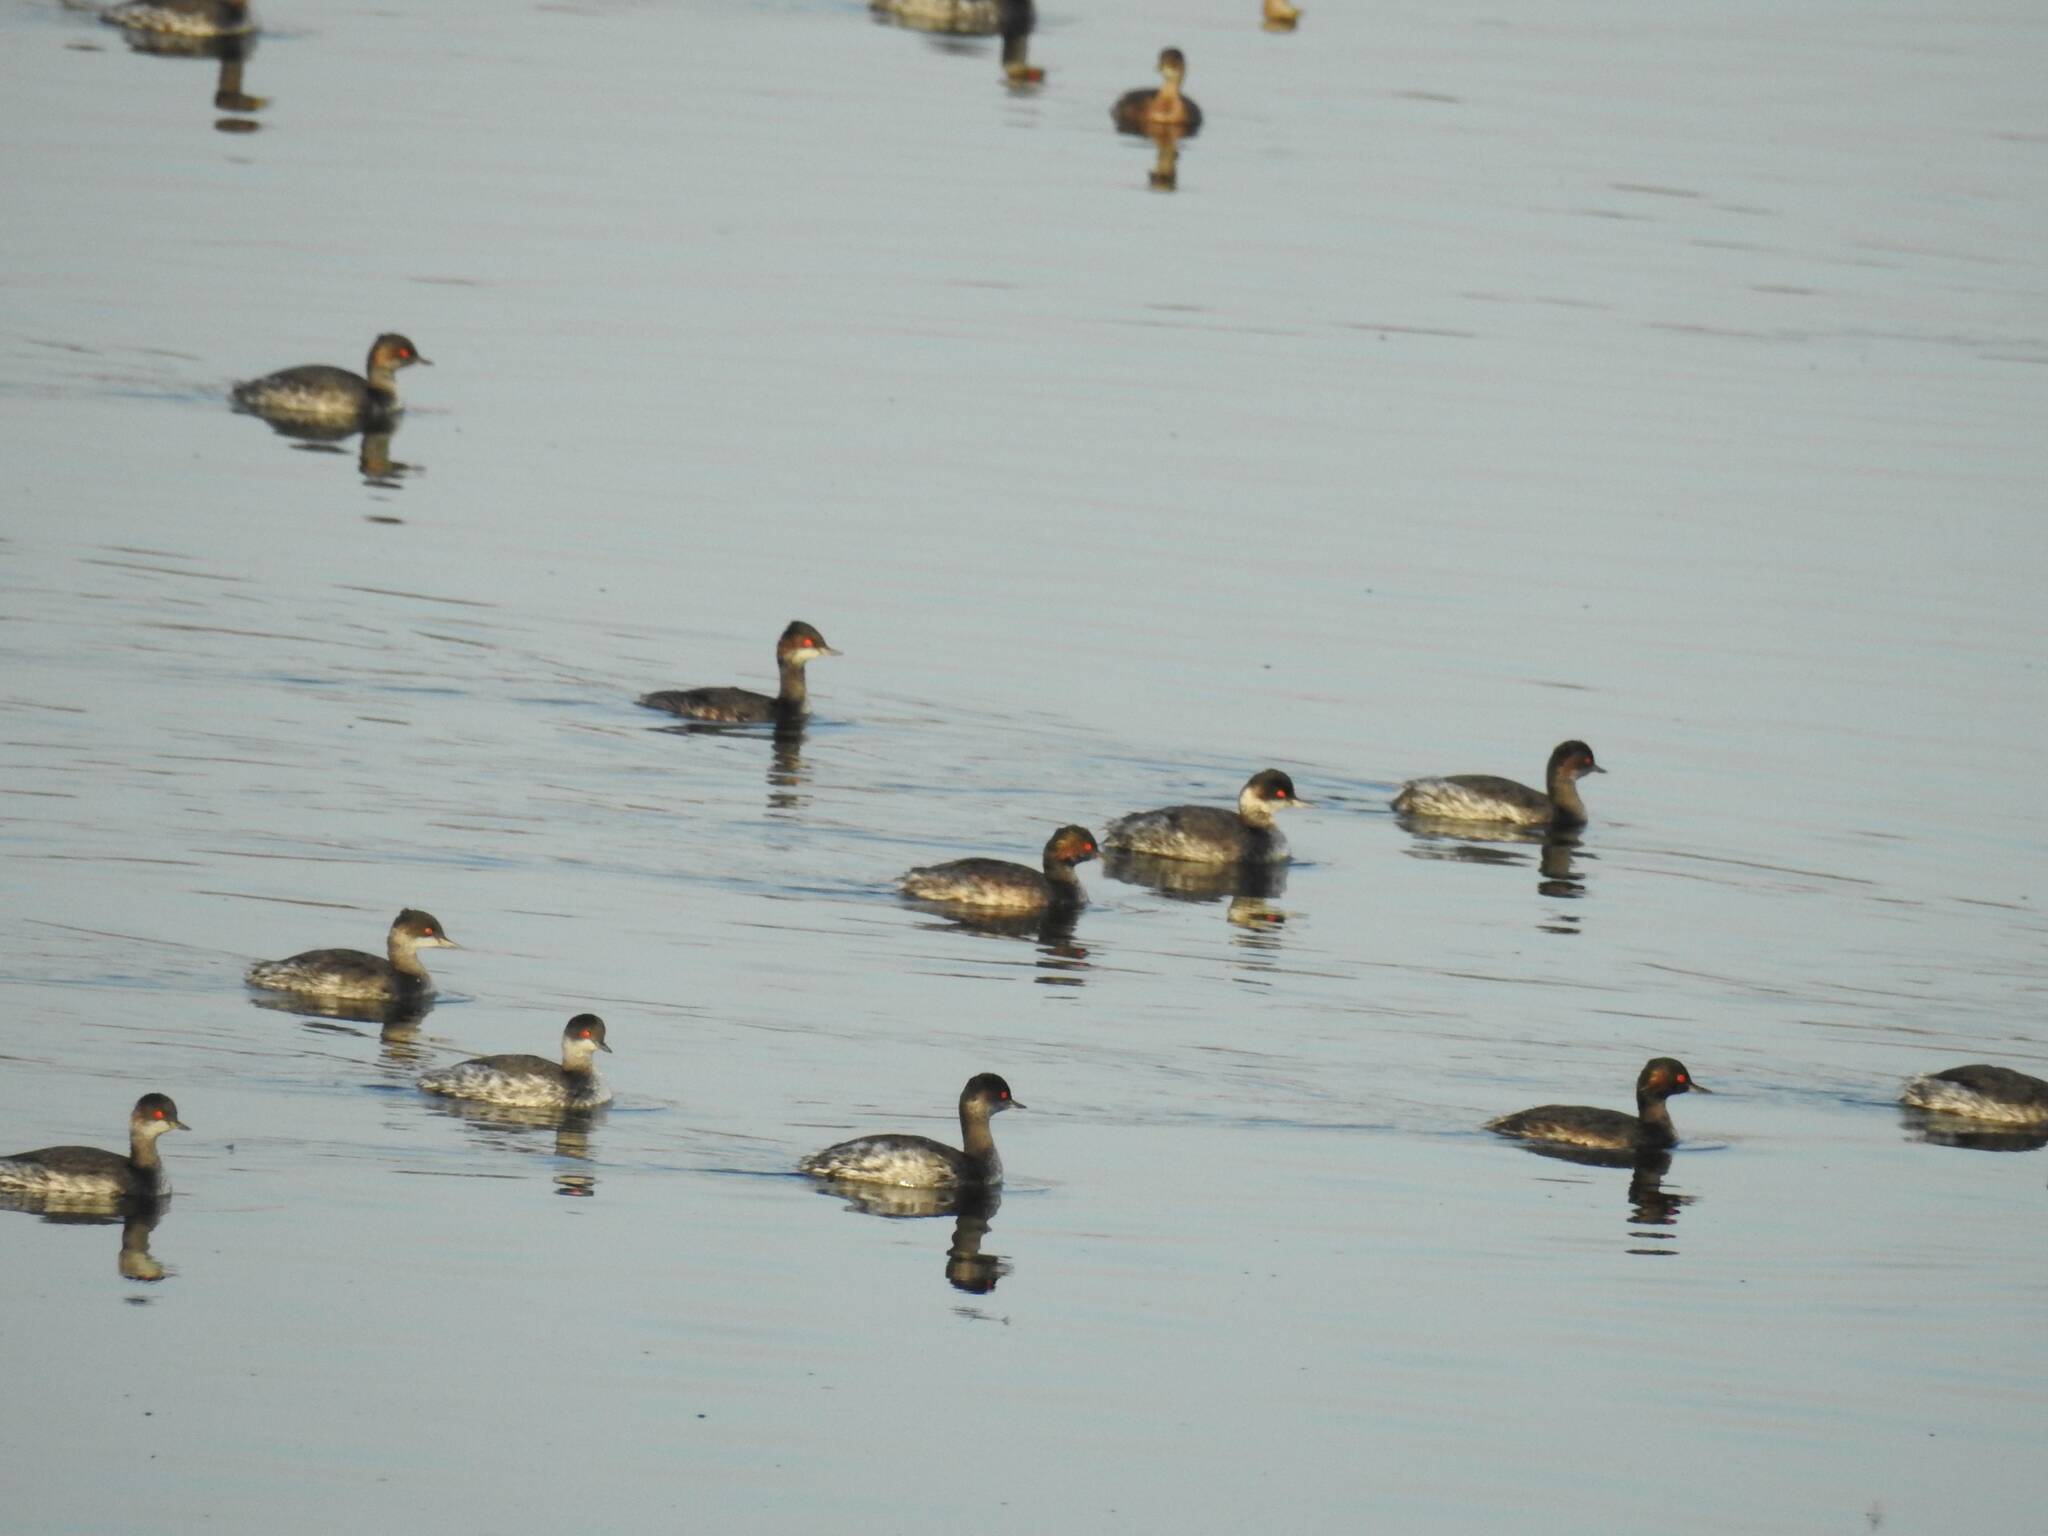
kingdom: Animalia
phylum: Chordata
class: Aves
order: Podicipediformes
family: Podicipedidae
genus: Podiceps
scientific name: Podiceps nigricollis
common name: Black-necked grebe
